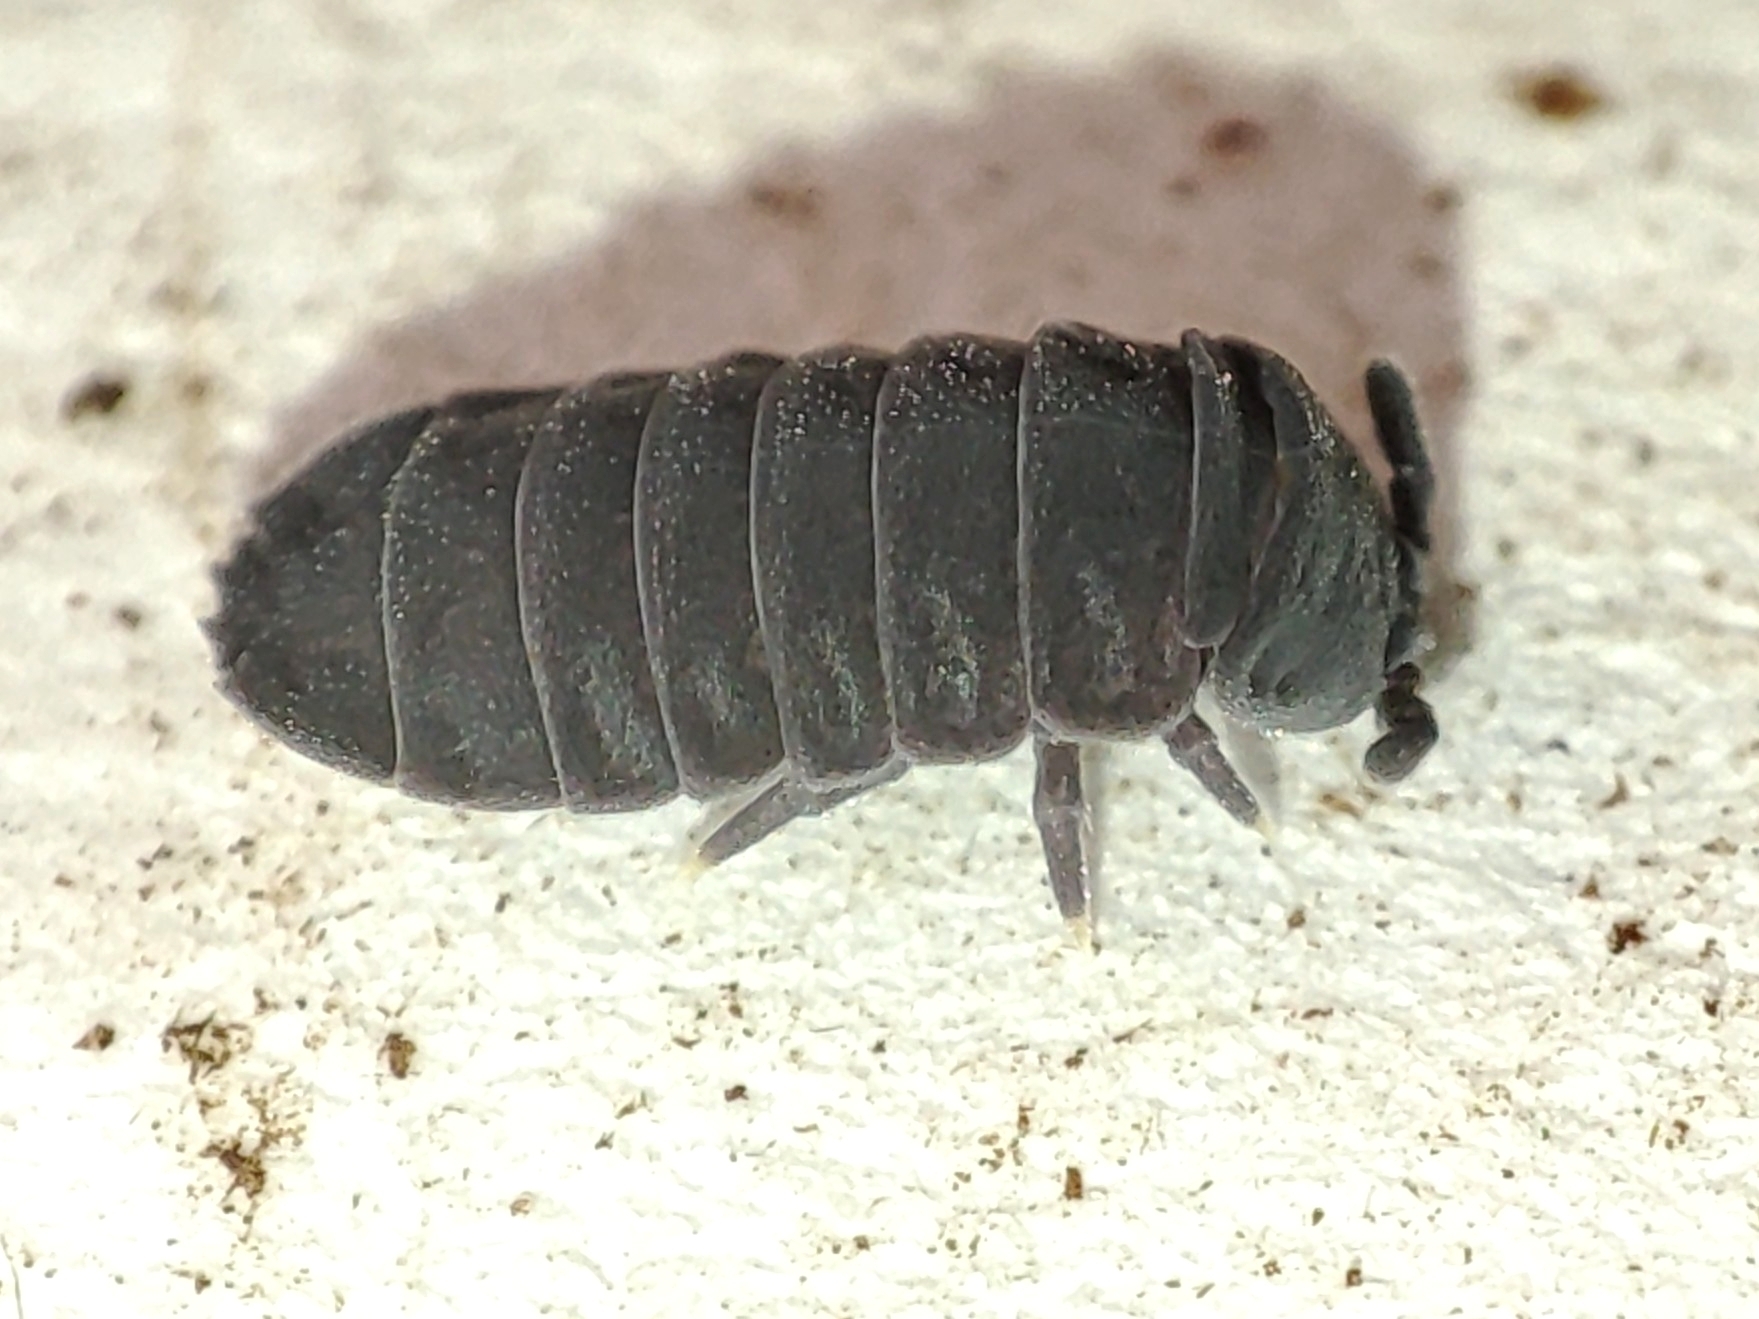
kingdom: Animalia
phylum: Arthropoda
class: Collembola
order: Poduromorpha
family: Onychiuridae
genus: Tetrodontophora
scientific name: Tetrodontophora bielanensis
